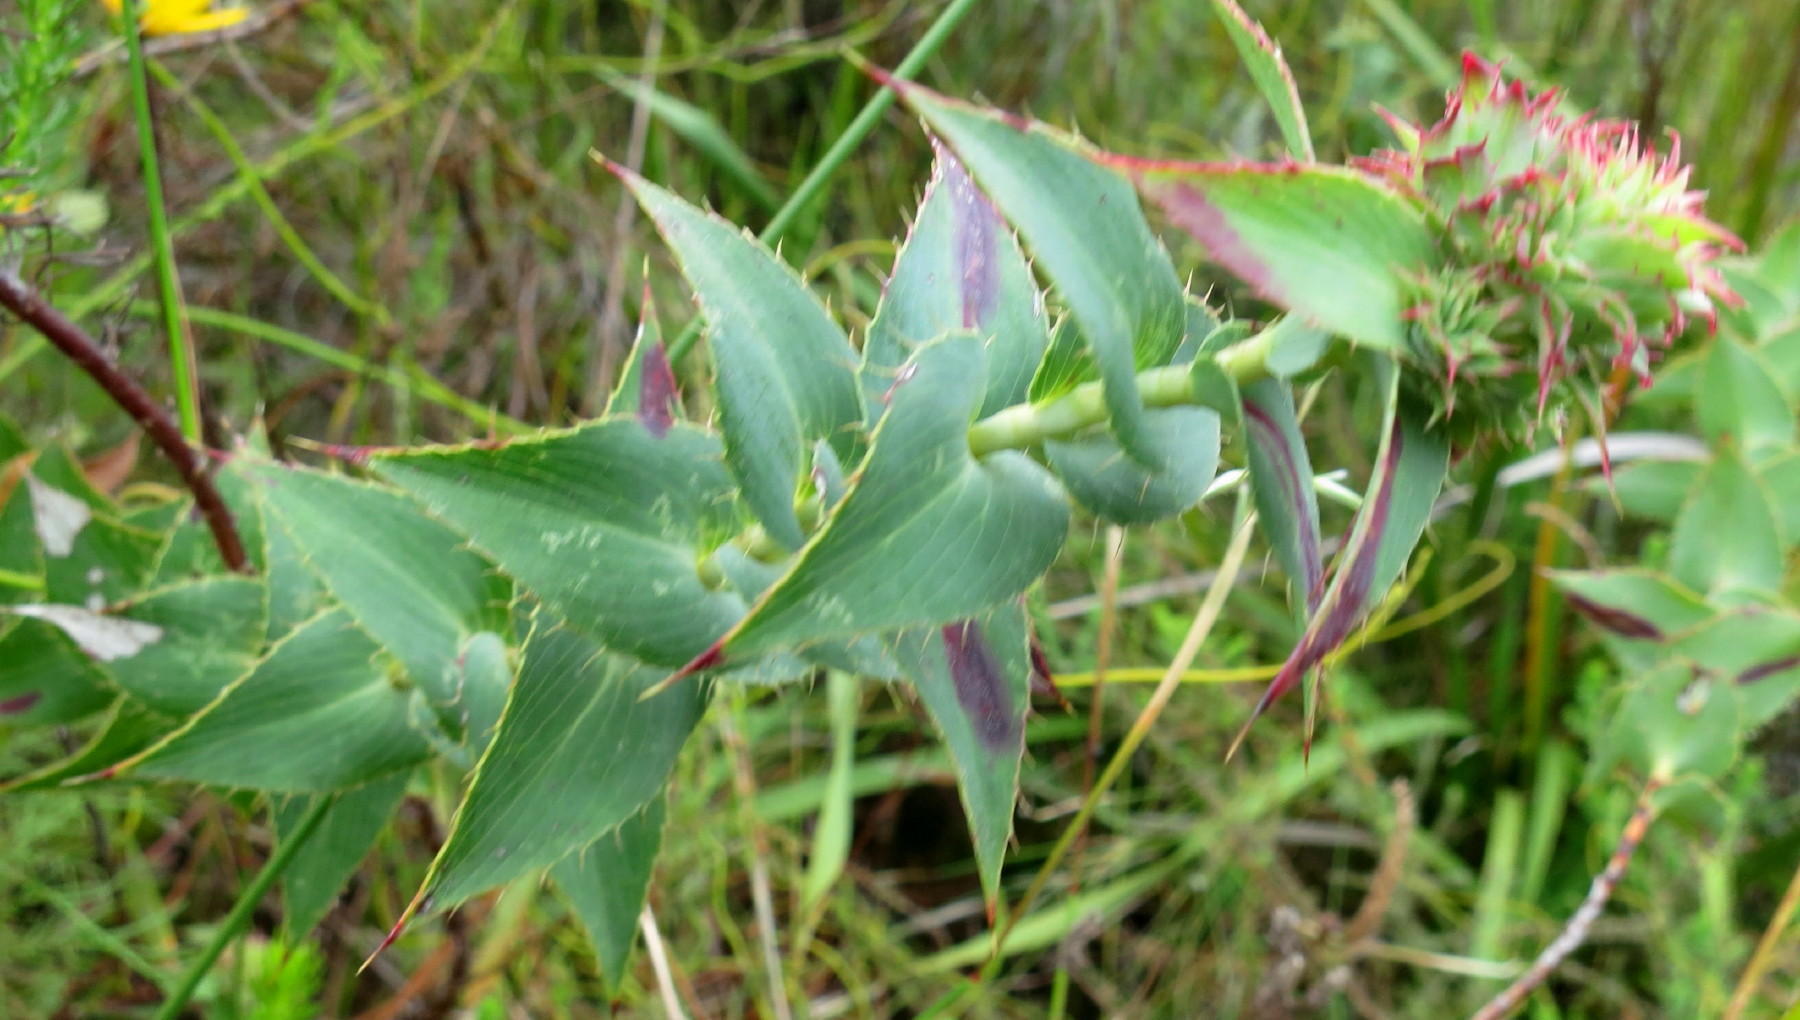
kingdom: Plantae
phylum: Tracheophyta
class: Magnoliopsida
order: Rosales
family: Rosaceae
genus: Cliffortia
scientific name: Cliffortia virgata
